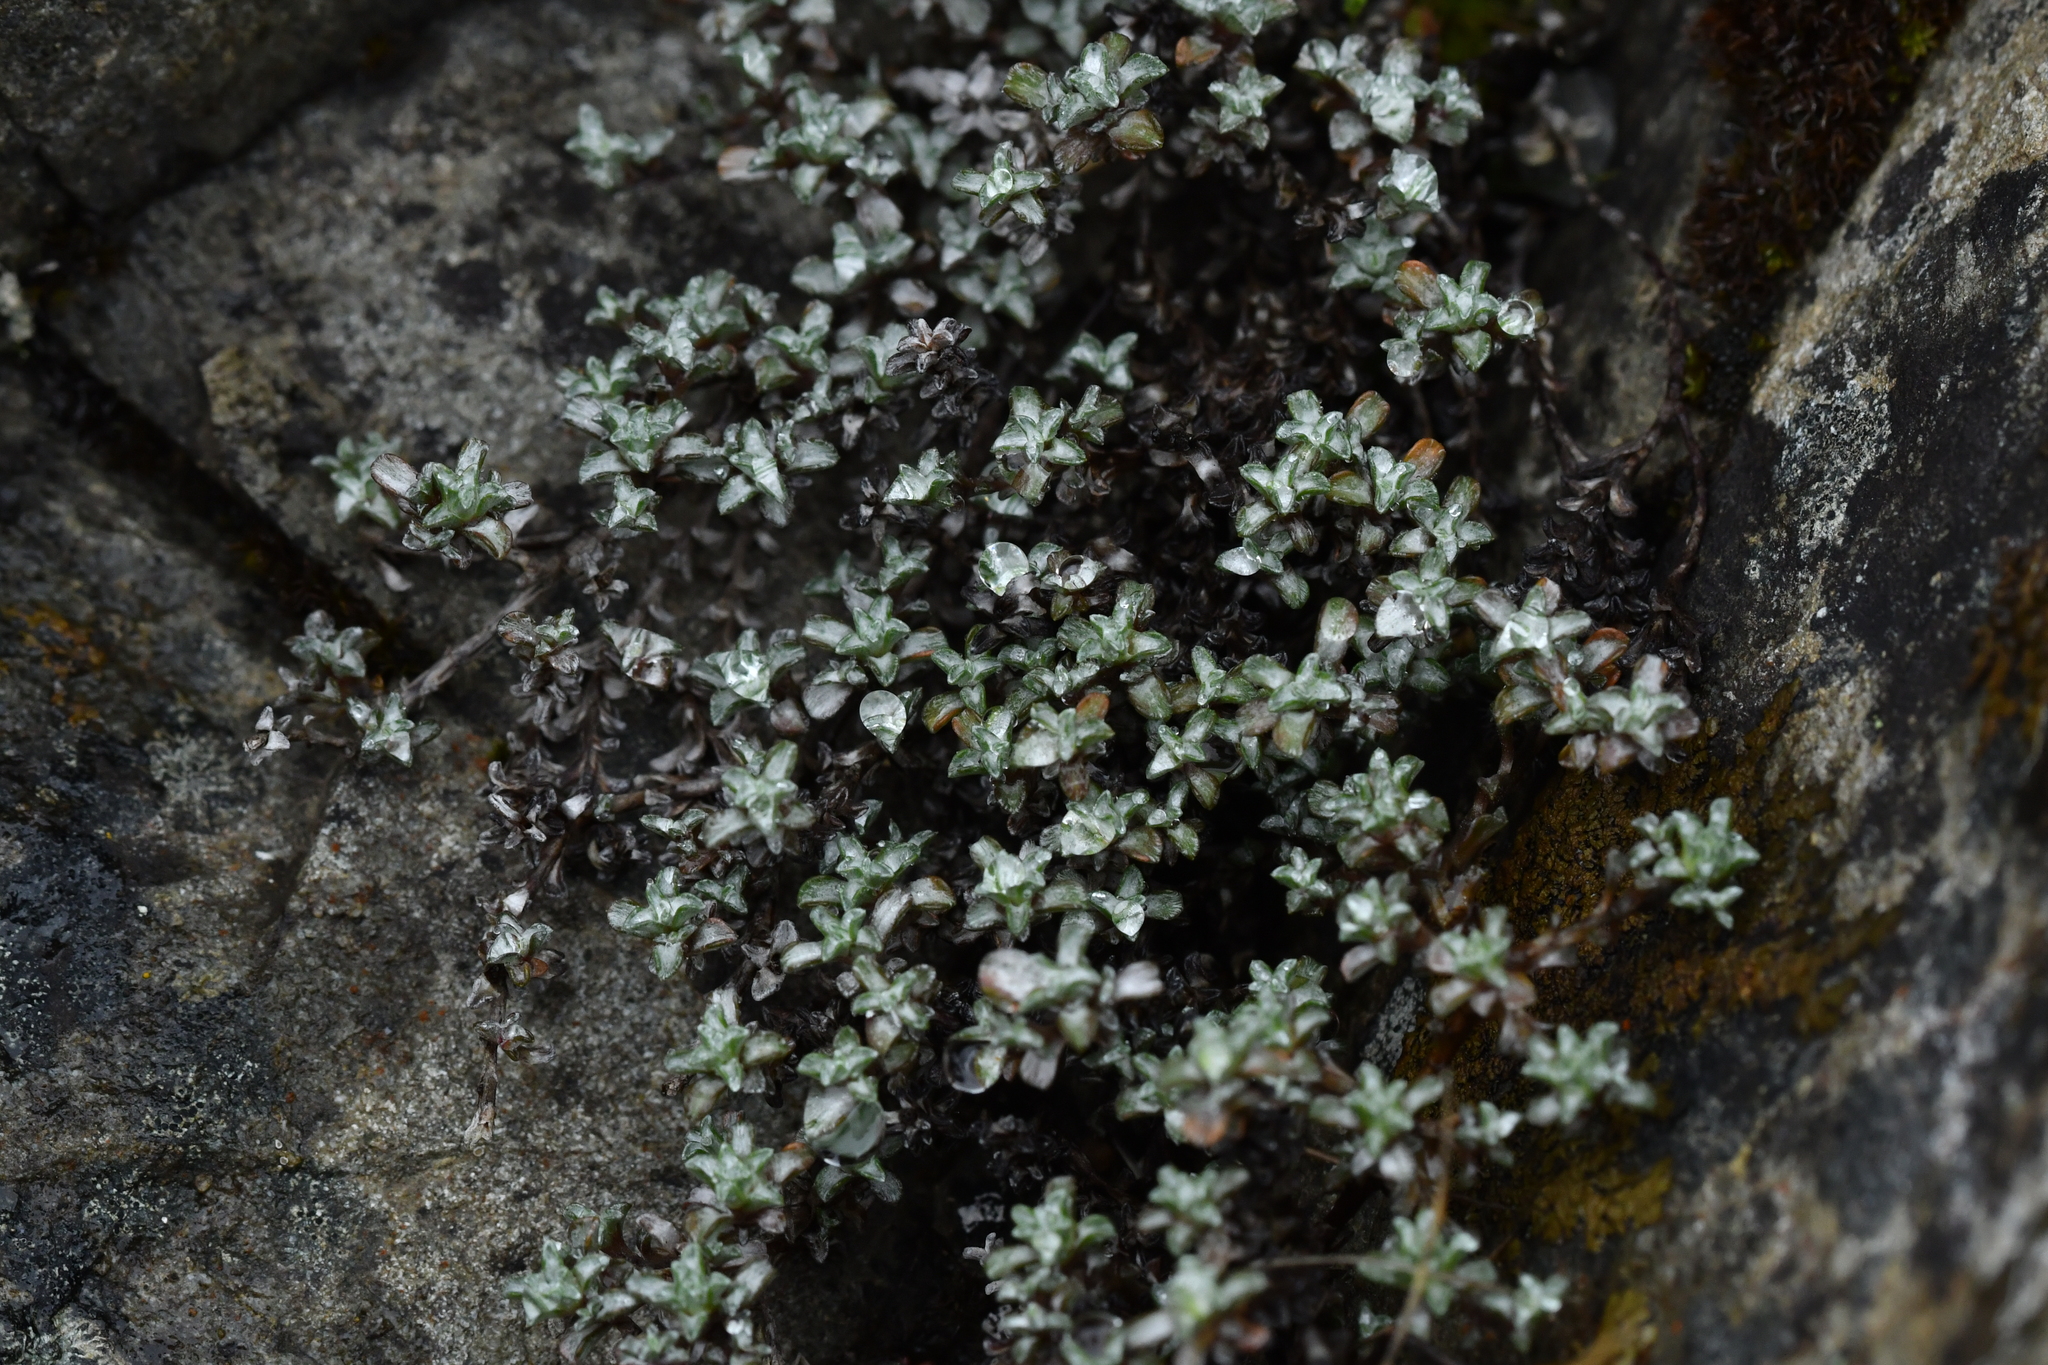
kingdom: Plantae
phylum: Tracheophyta
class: Magnoliopsida
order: Asterales
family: Asteraceae
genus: Raoulia
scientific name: Raoulia tenuicaulis
